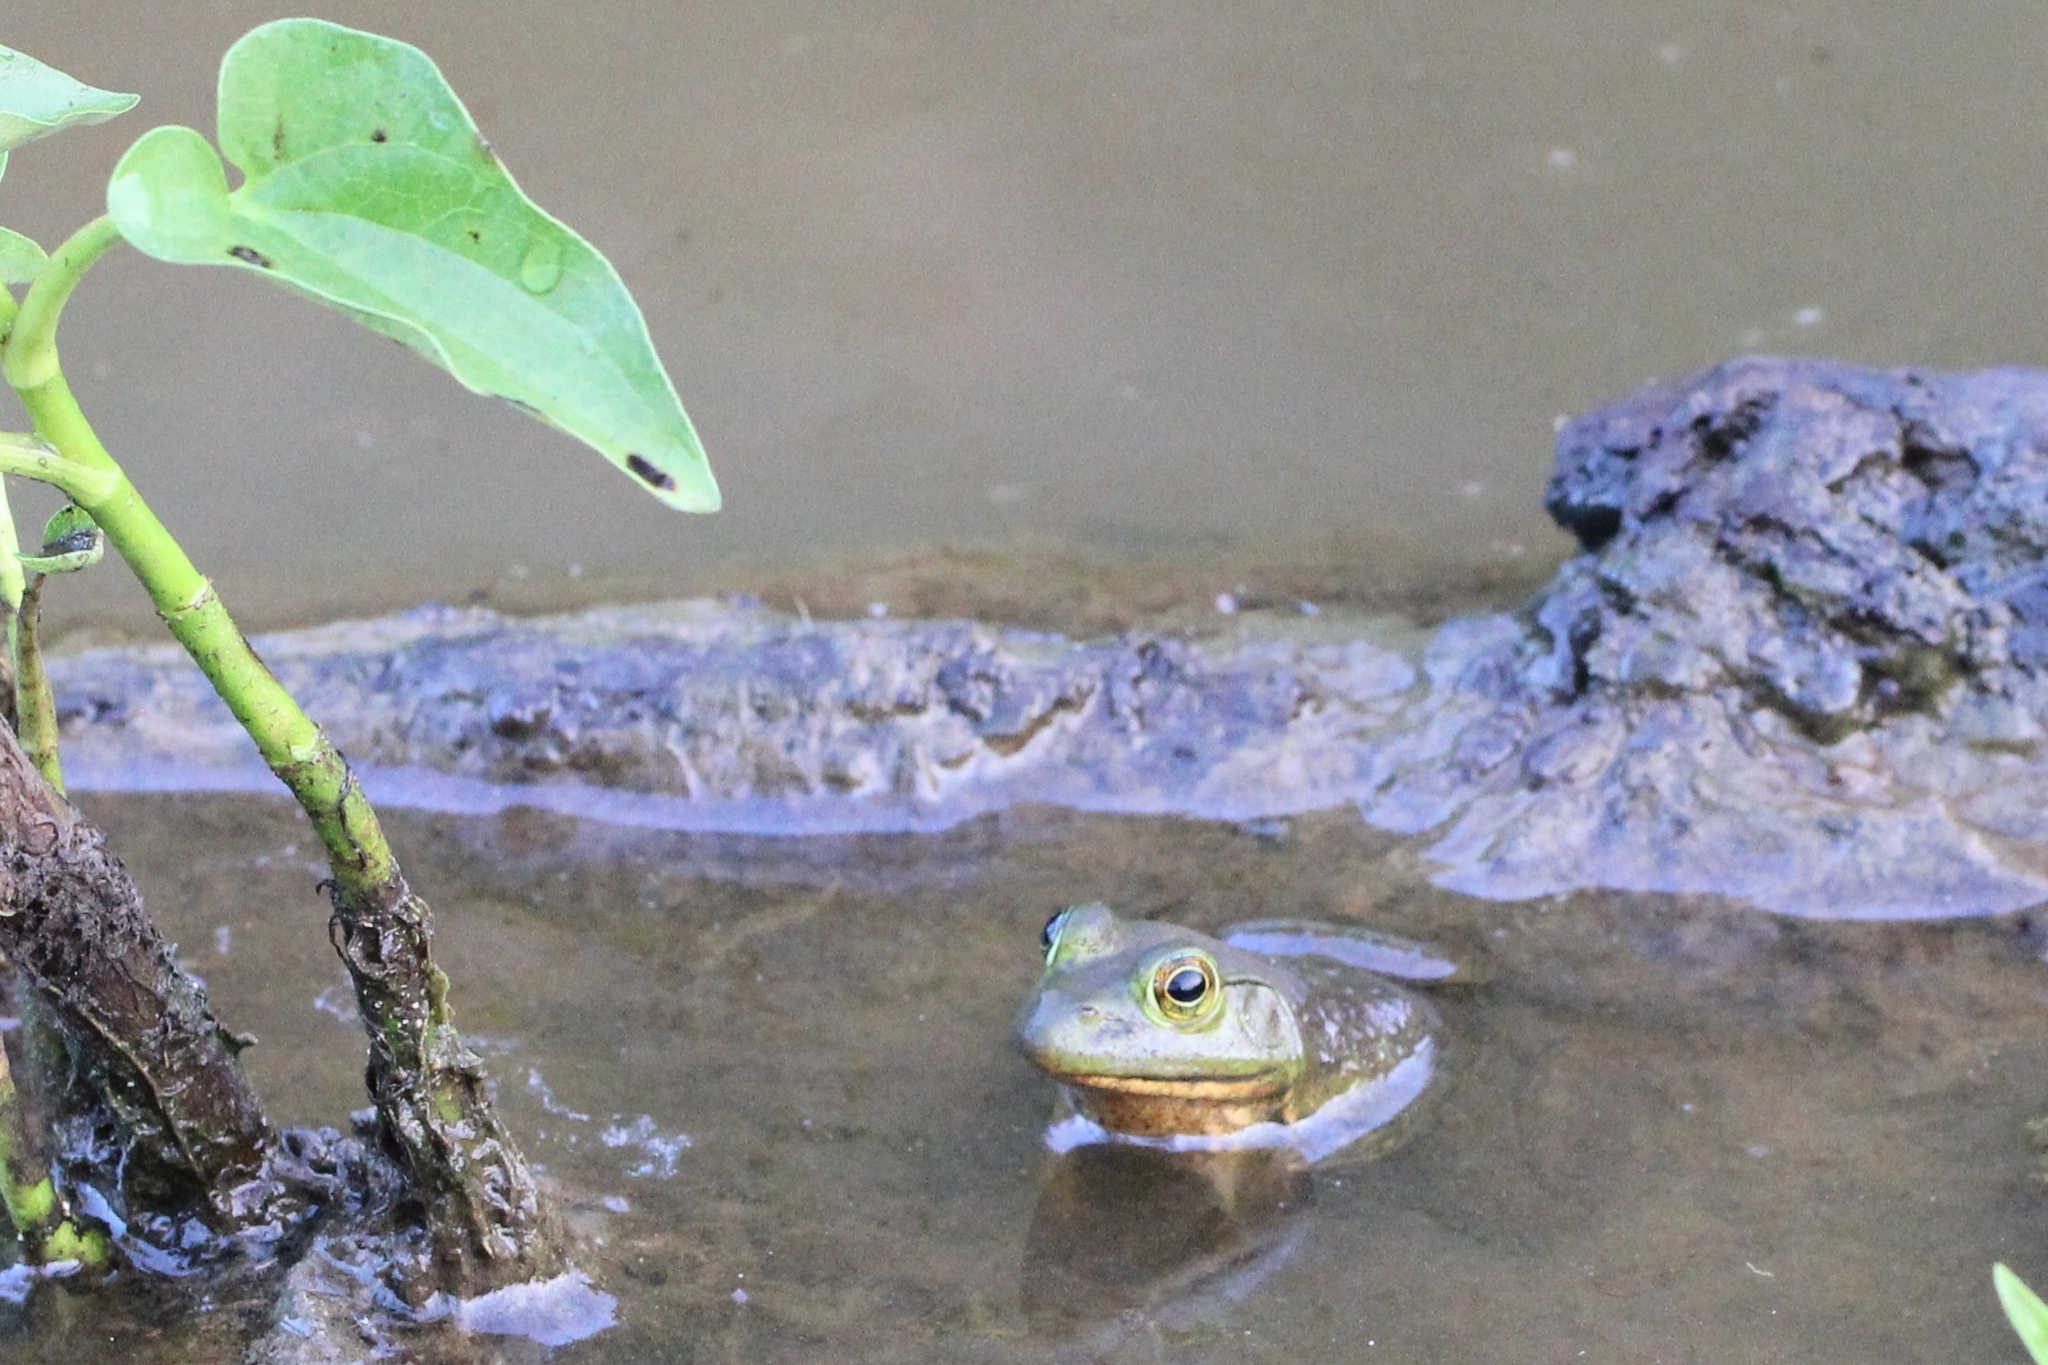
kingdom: Animalia
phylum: Chordata
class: Amphibia
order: Anura
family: Ranidae
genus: Lithobates
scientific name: Lithobates catesbeianus
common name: American bullfrog
